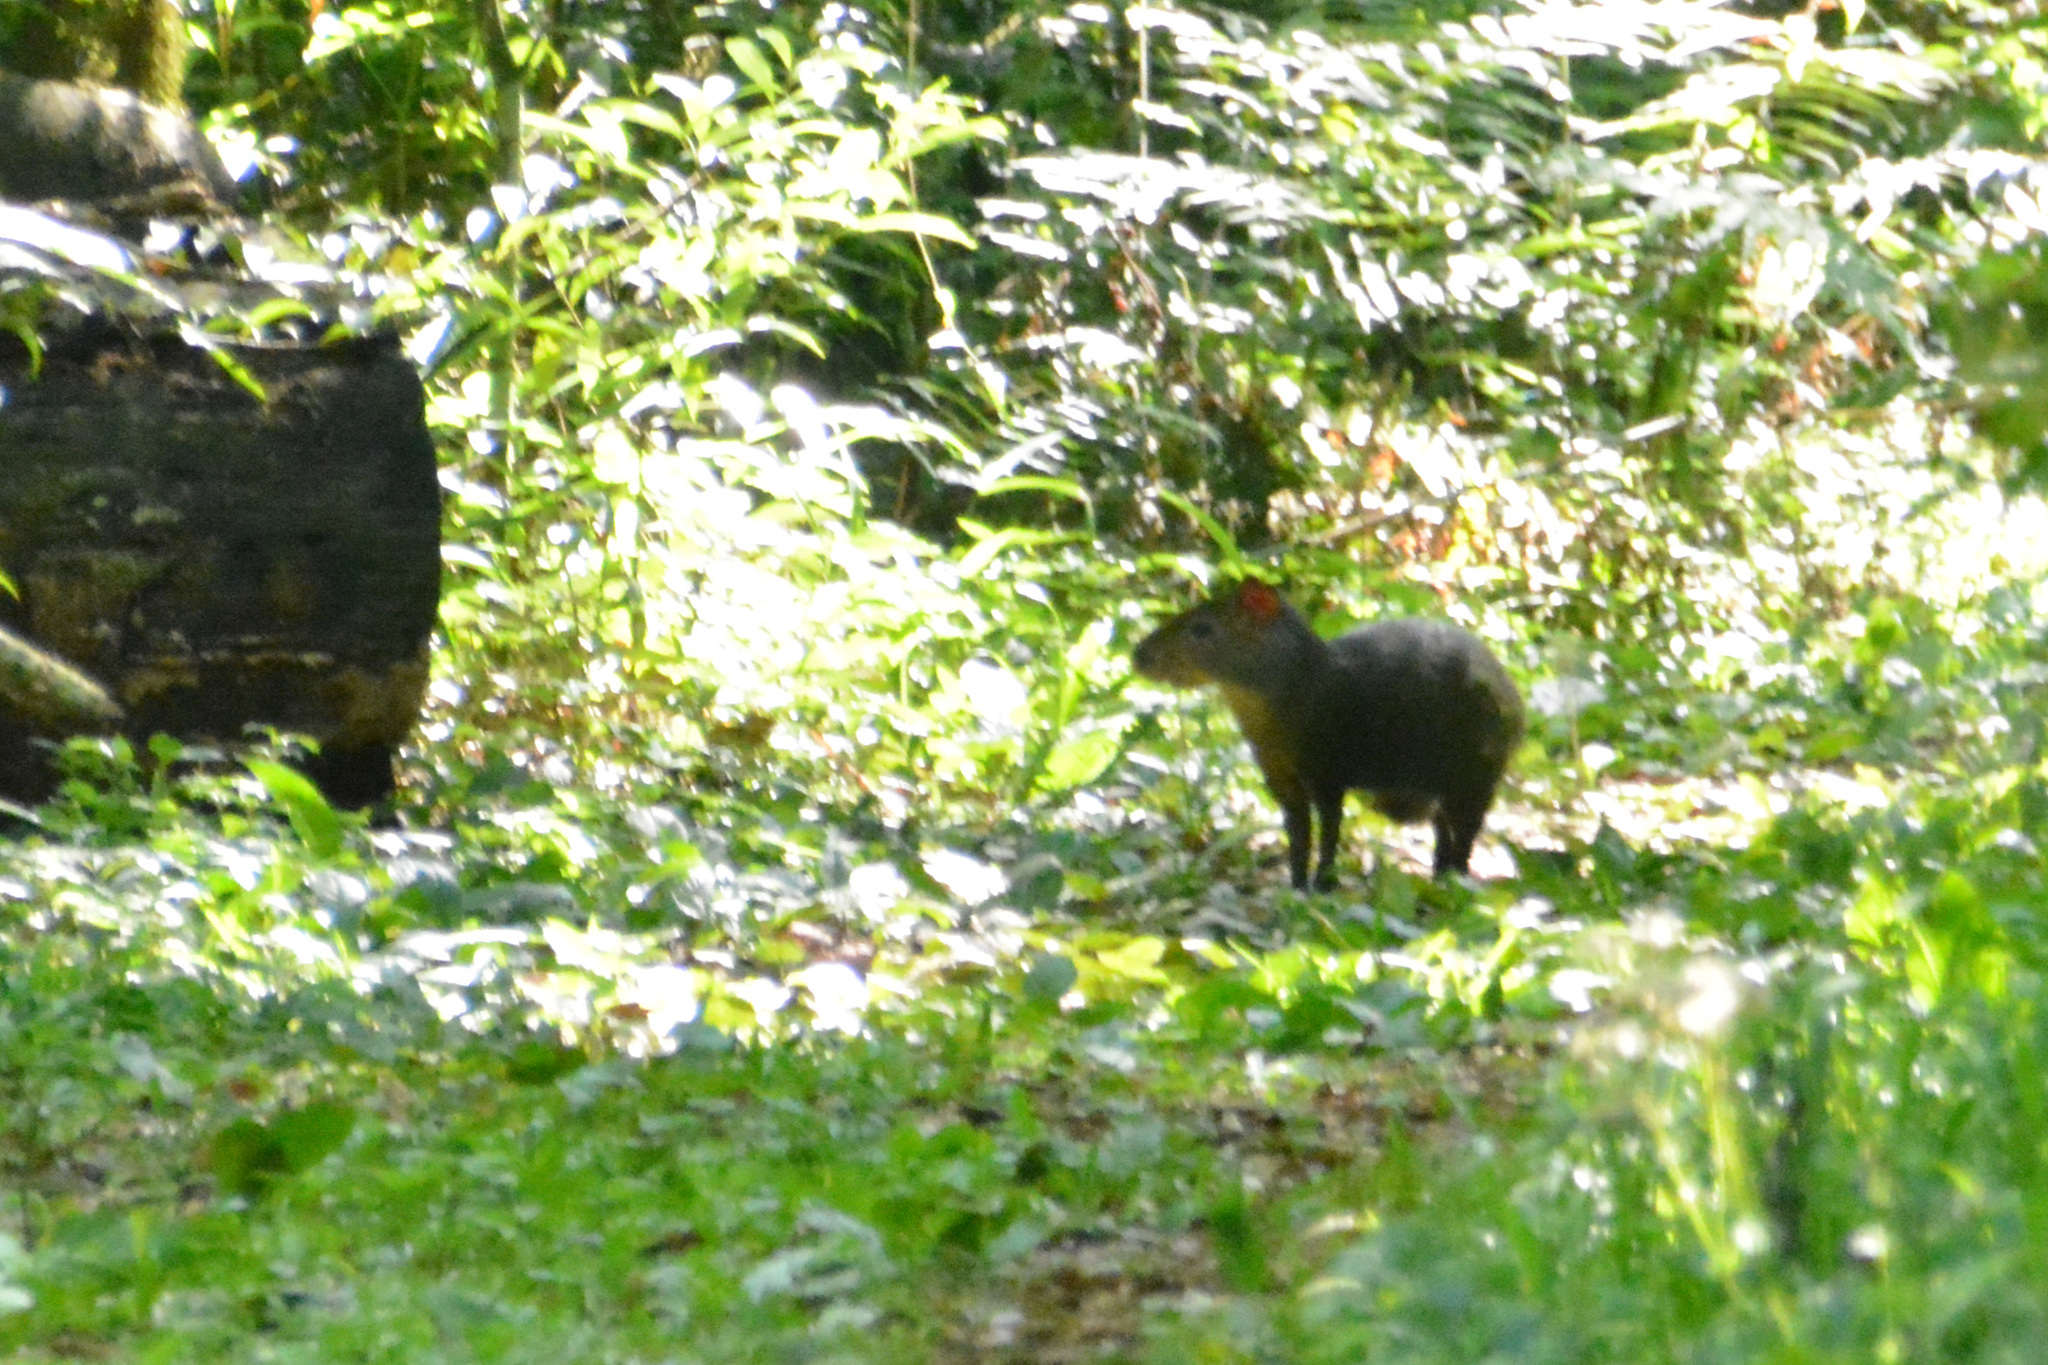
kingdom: Animalia
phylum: Chordata
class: Mammalia
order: Rodentia
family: Dasyproctidae
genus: Dasyprocta
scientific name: Dasyprocta azarae
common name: Azara's agouti
